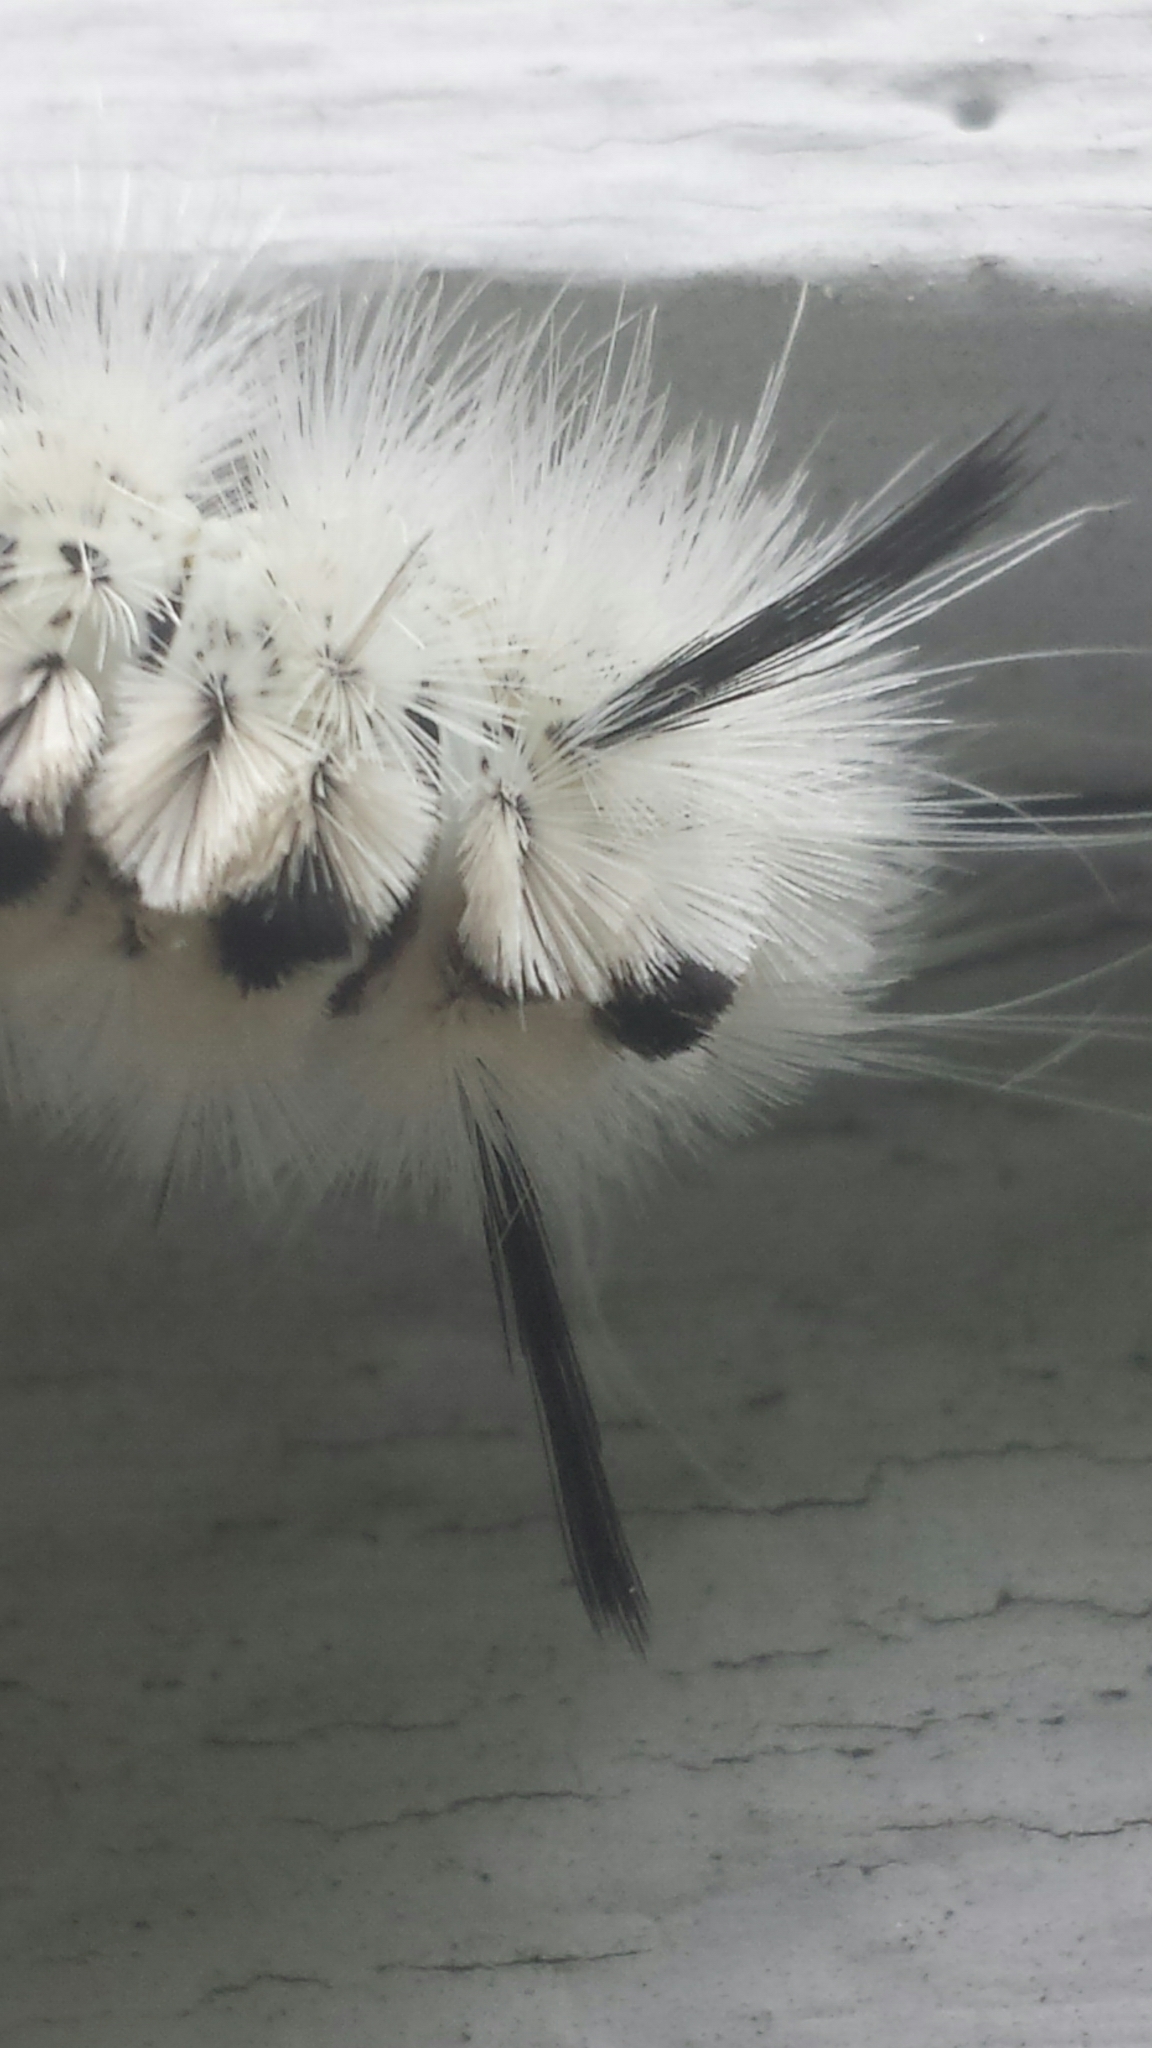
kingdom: Animalia
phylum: Arthropoda
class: Insecta
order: Lepidoptera
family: Erebidae
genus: Lophocampa
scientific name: Lophocampa caryae
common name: Hickory tussock moth
